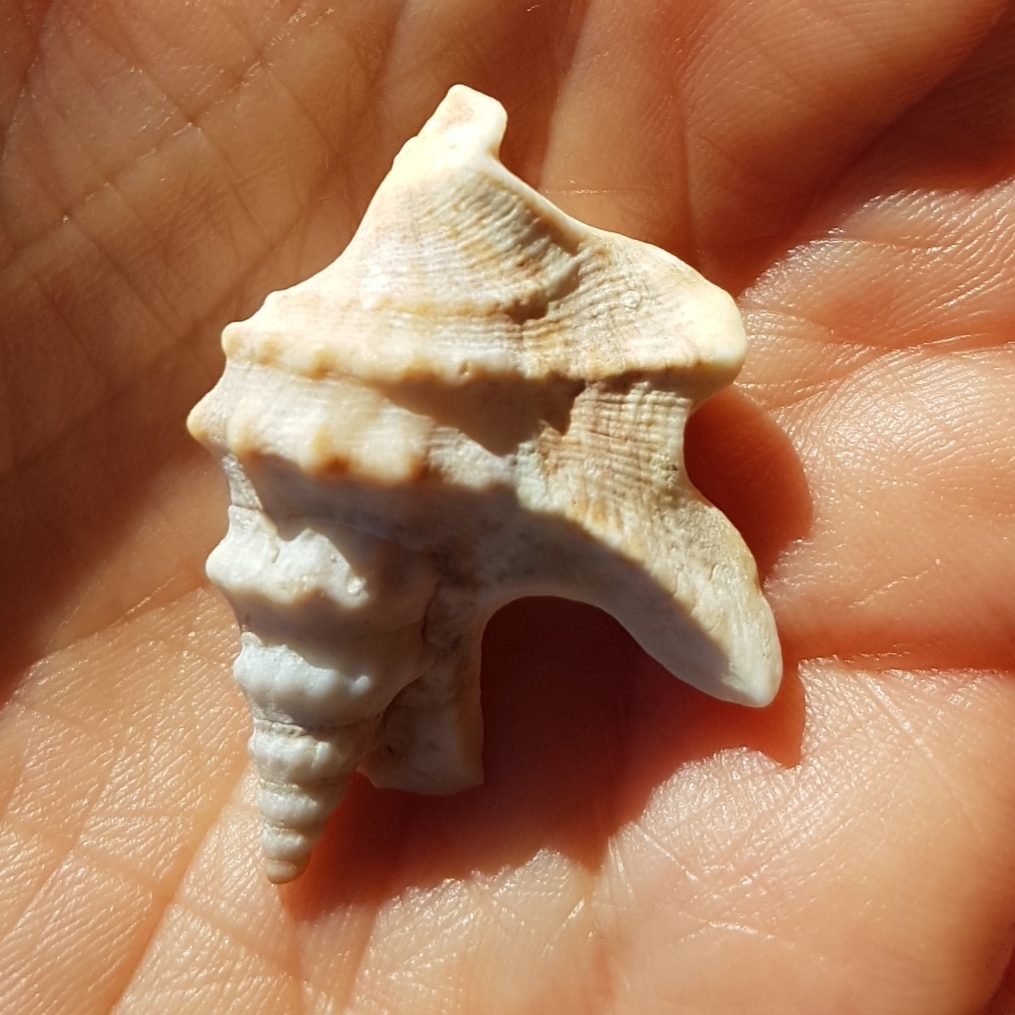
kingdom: Animalia
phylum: Mollusca
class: Gastropoda
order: Littorinimorpha
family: Aporrhaidae
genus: Aporrhais
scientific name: Aporrhais pespelecani
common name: Common pelican’s foot
